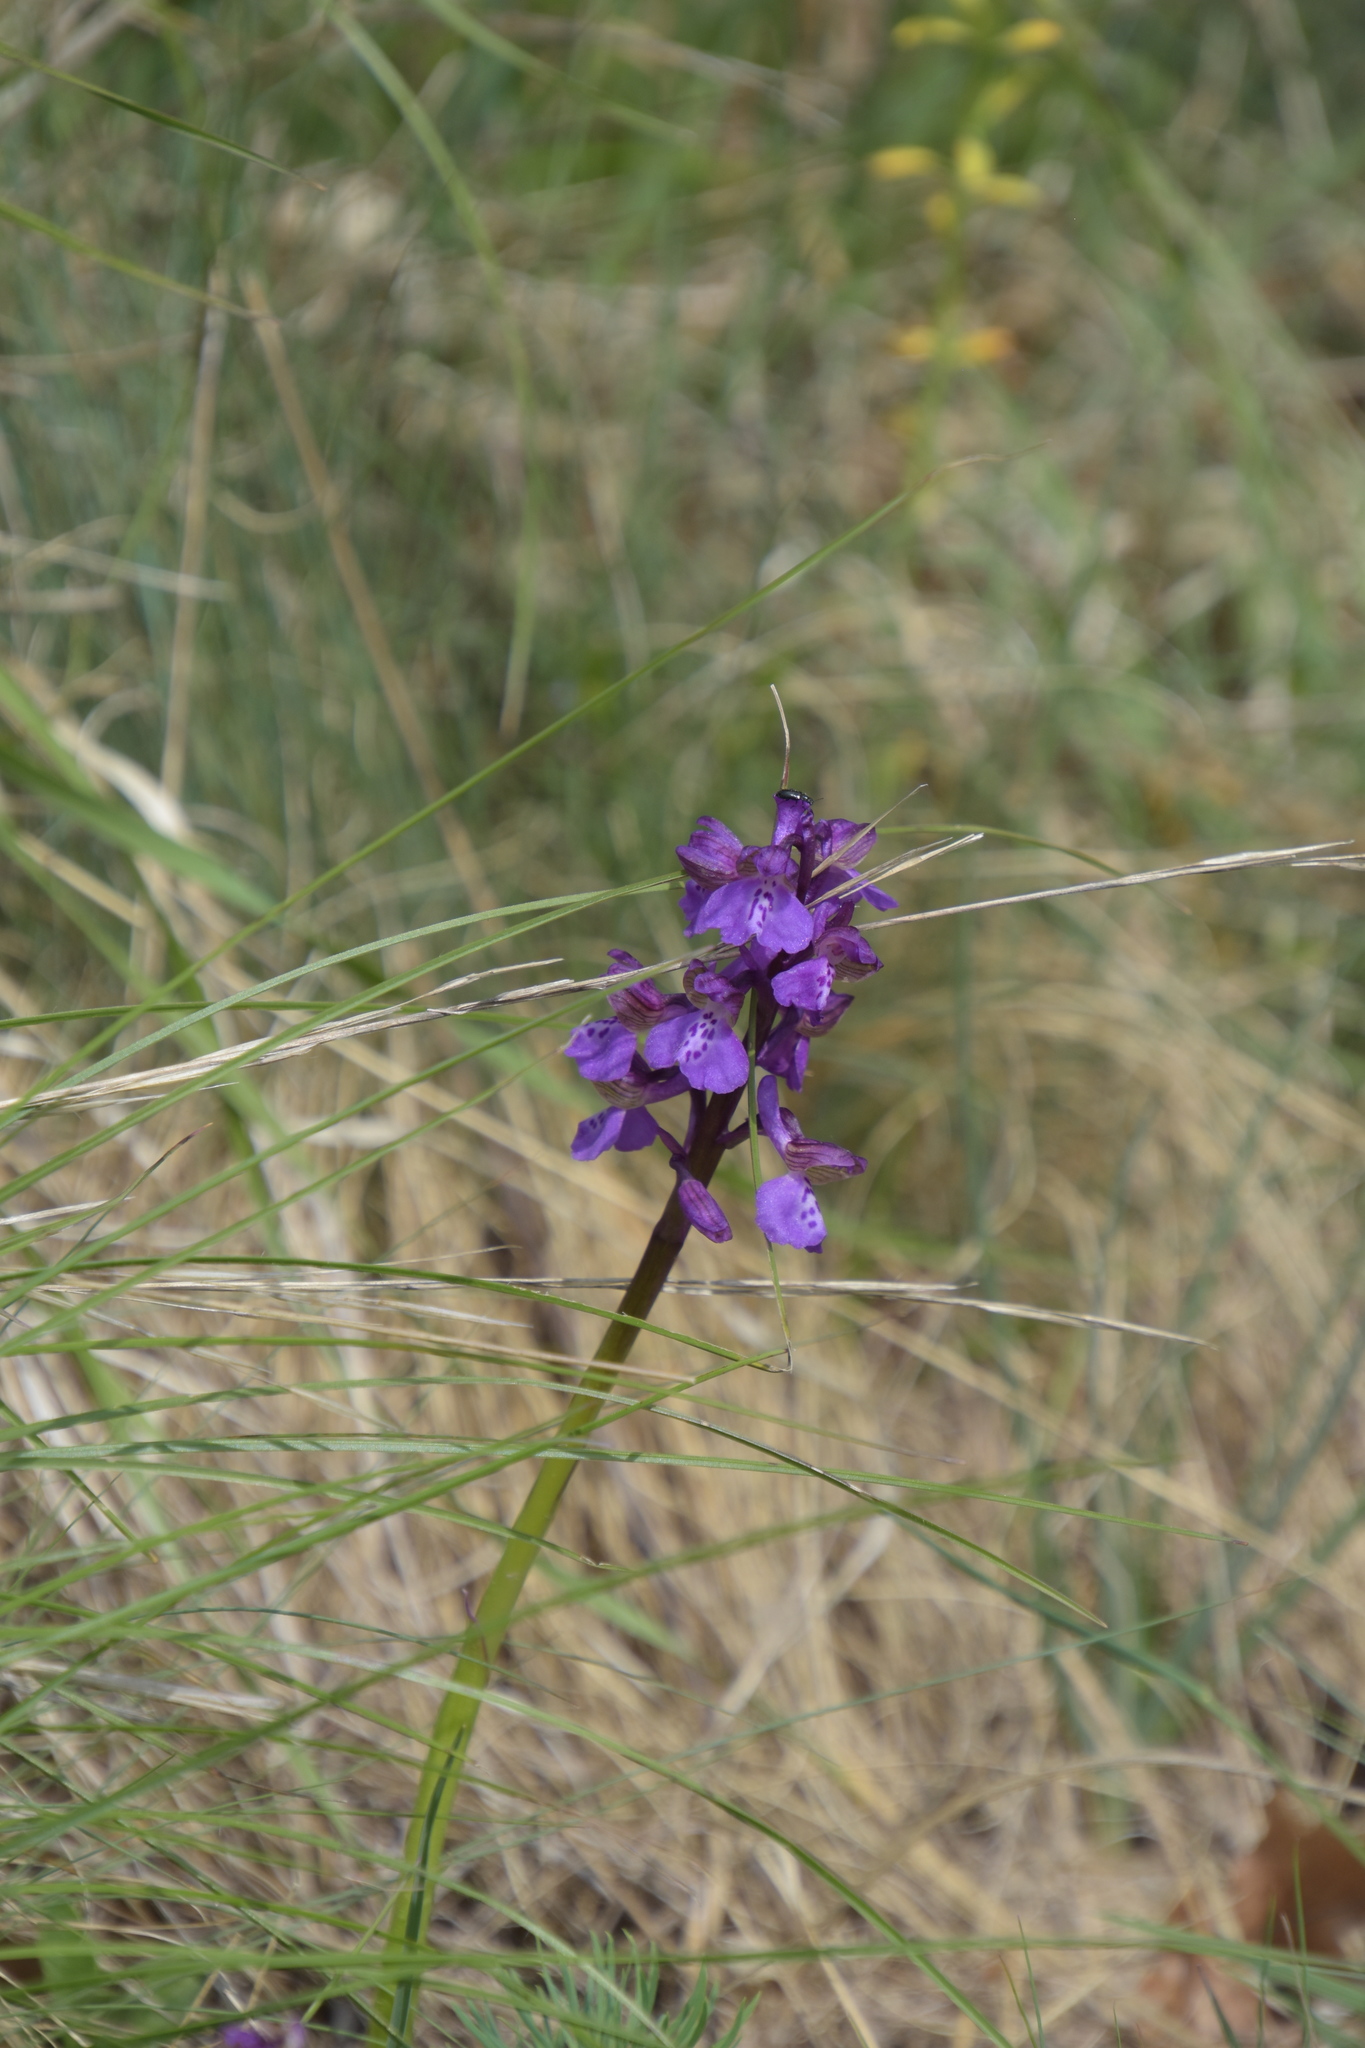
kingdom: Plantae
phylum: Tracheophyta
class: Liliopsida
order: Asparagales
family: Orchidaceae
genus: Anacamptis
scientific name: Anacamptis morio
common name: Green-winged orchid
